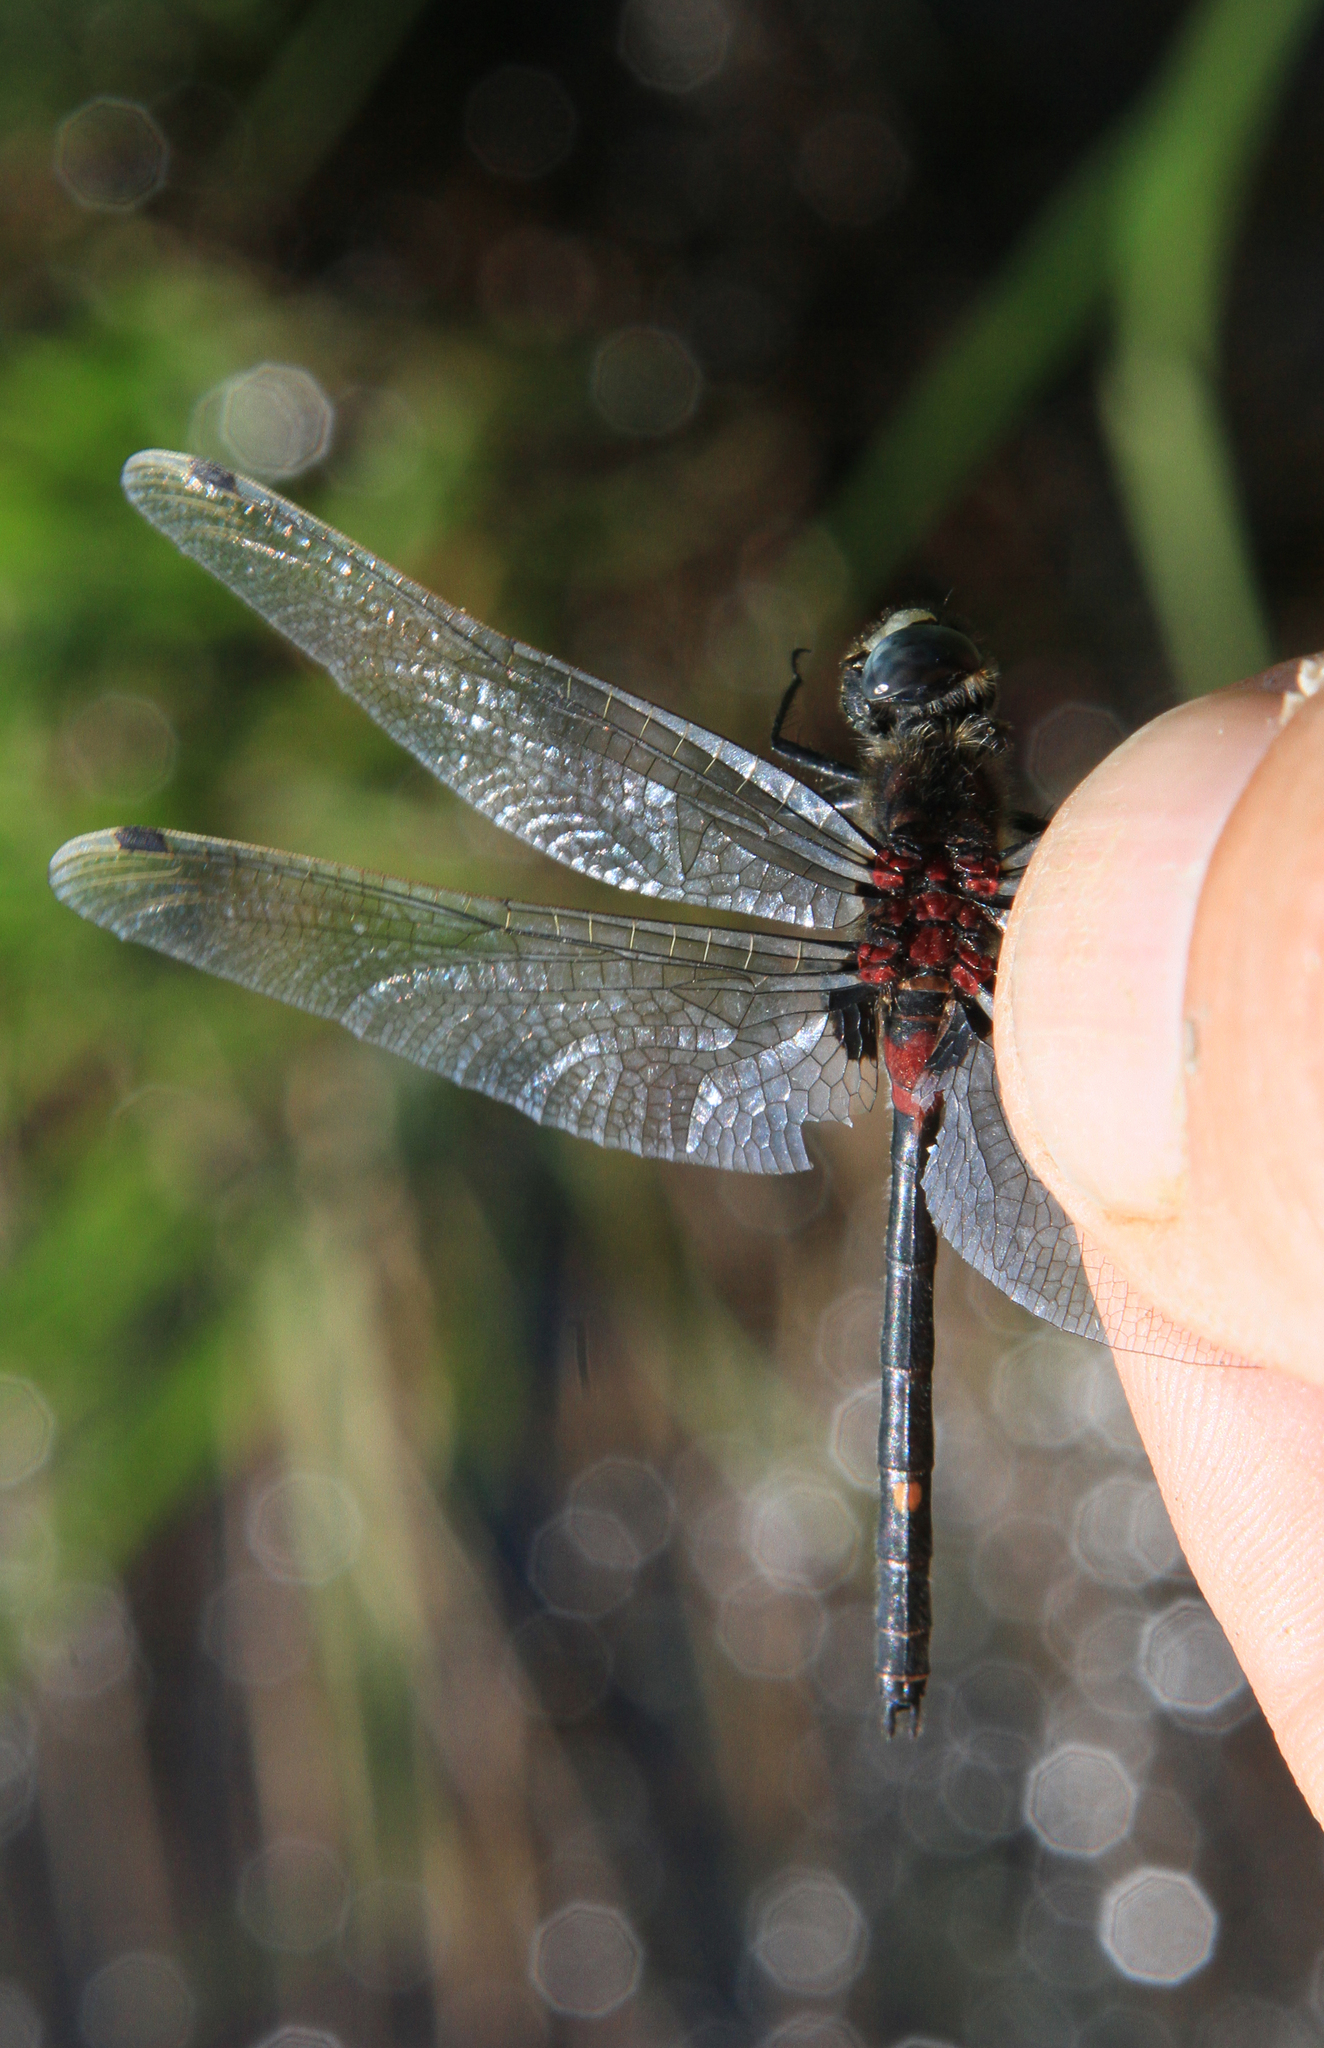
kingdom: Animalia
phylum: Arthropoda
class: Insecta
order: Odonata
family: Libellulidae
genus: Leucorrhinia
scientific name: Leucorrhinia orientalis
